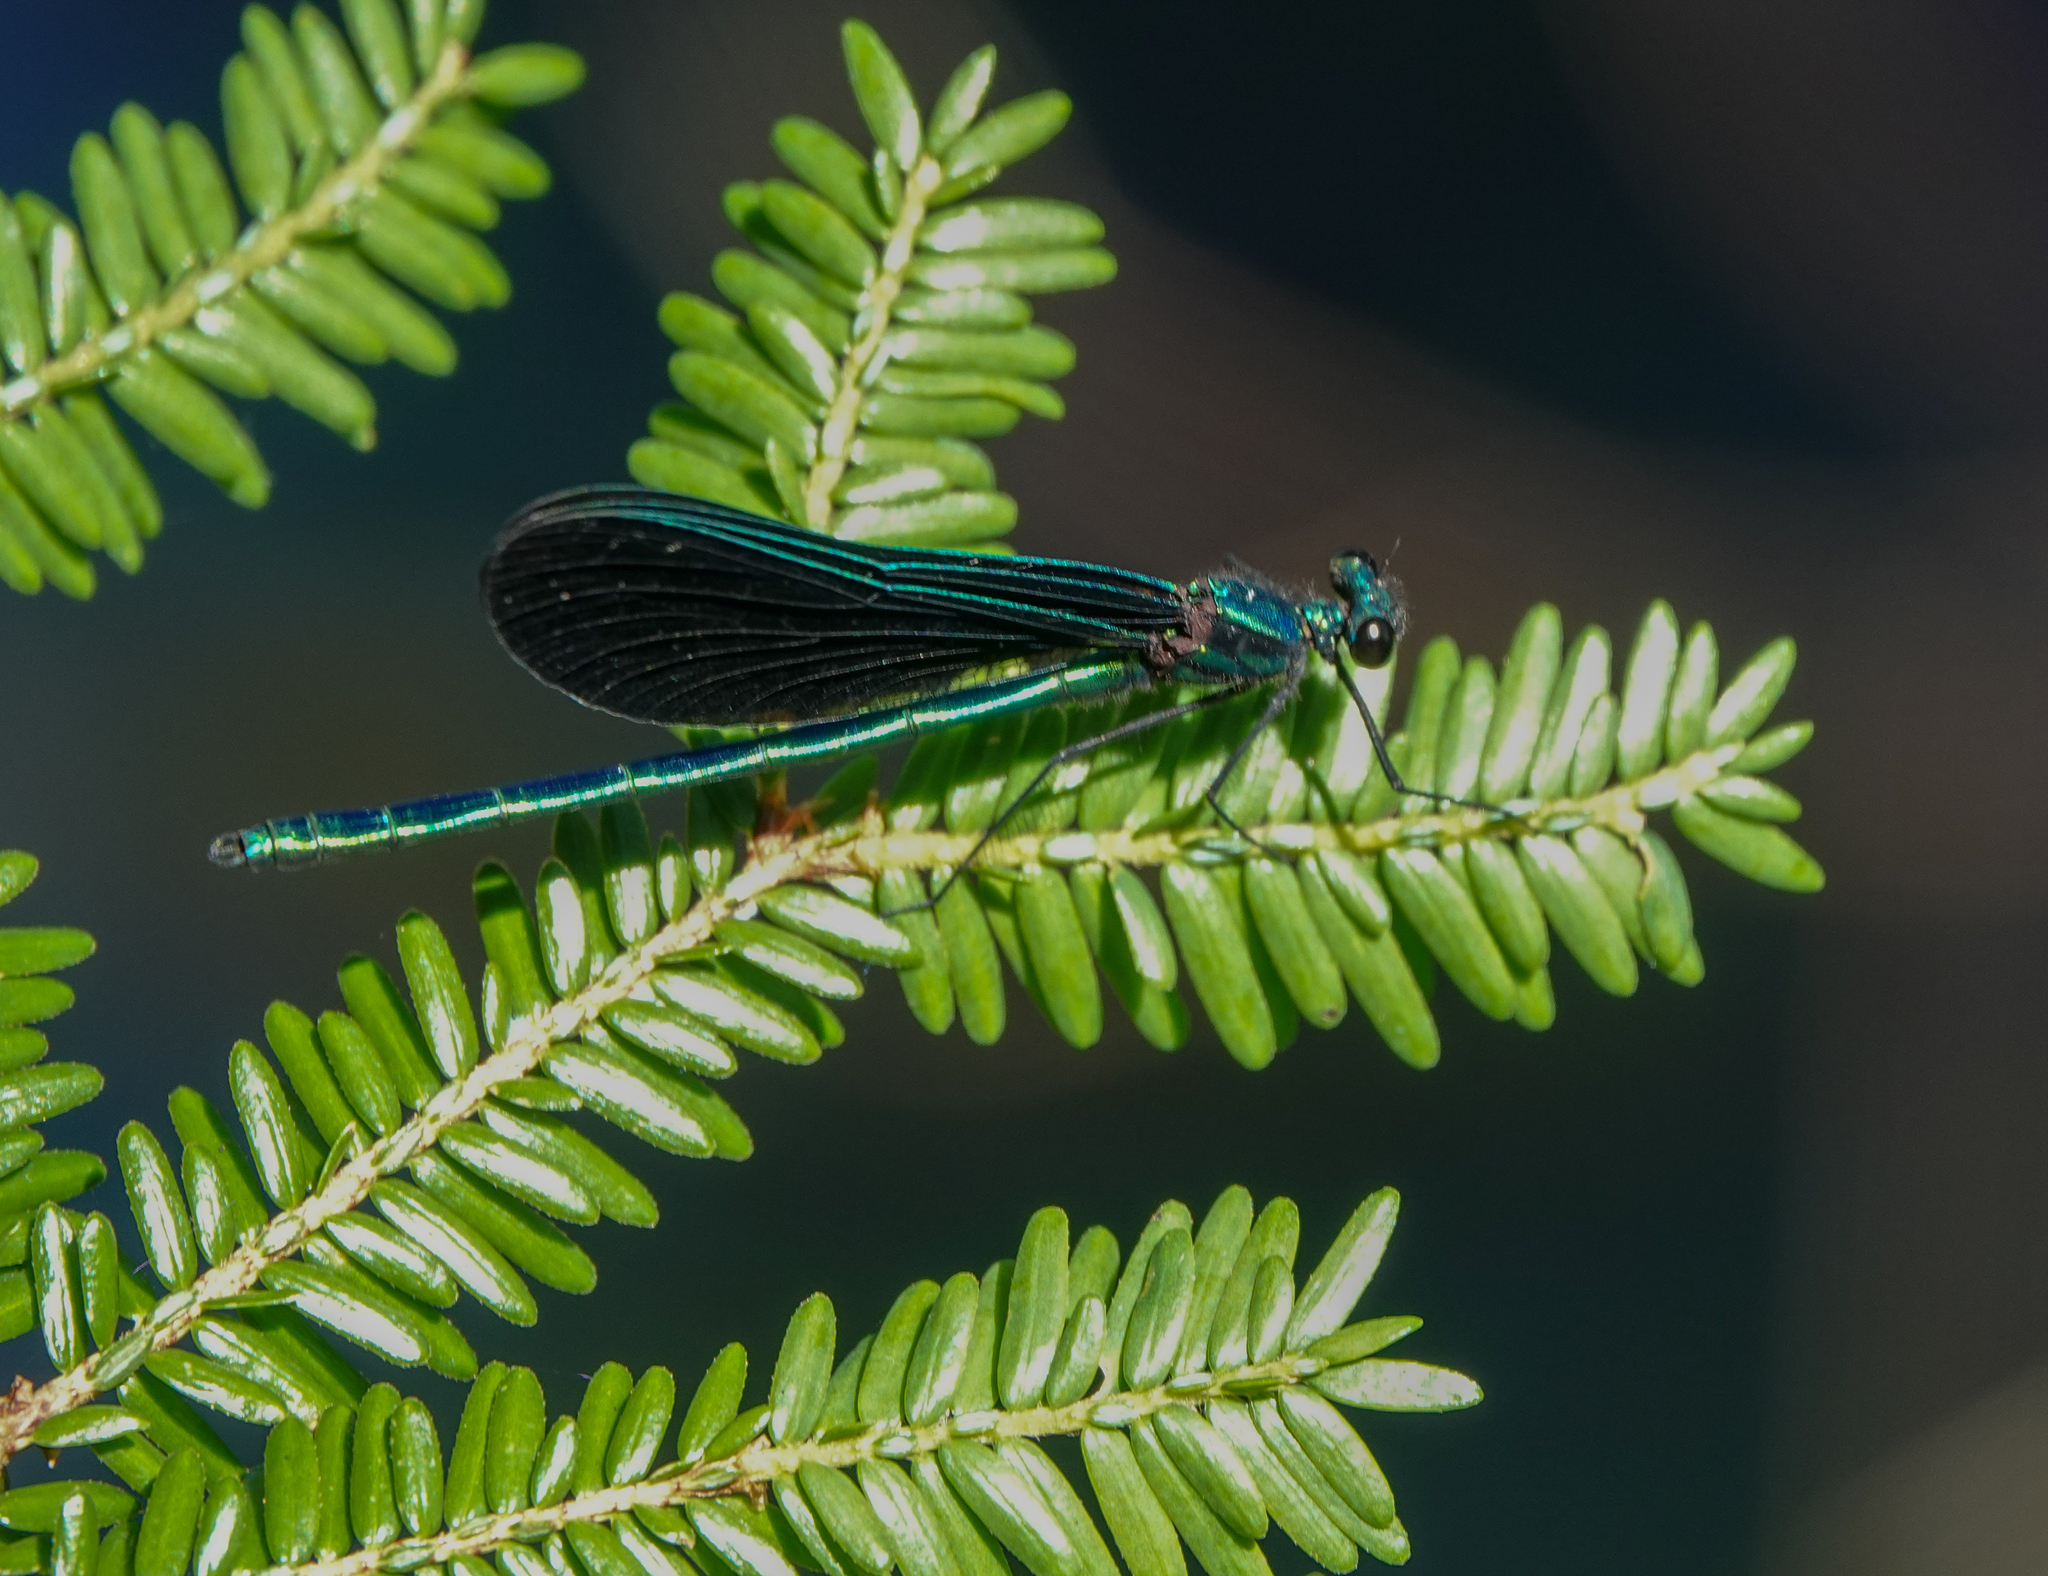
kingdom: Animalia
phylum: Arthropoda
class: Insecta
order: Odonata
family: Calopterygidae
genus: Calopteryx
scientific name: Calopteryx maculata
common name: Ebony jewelwing
